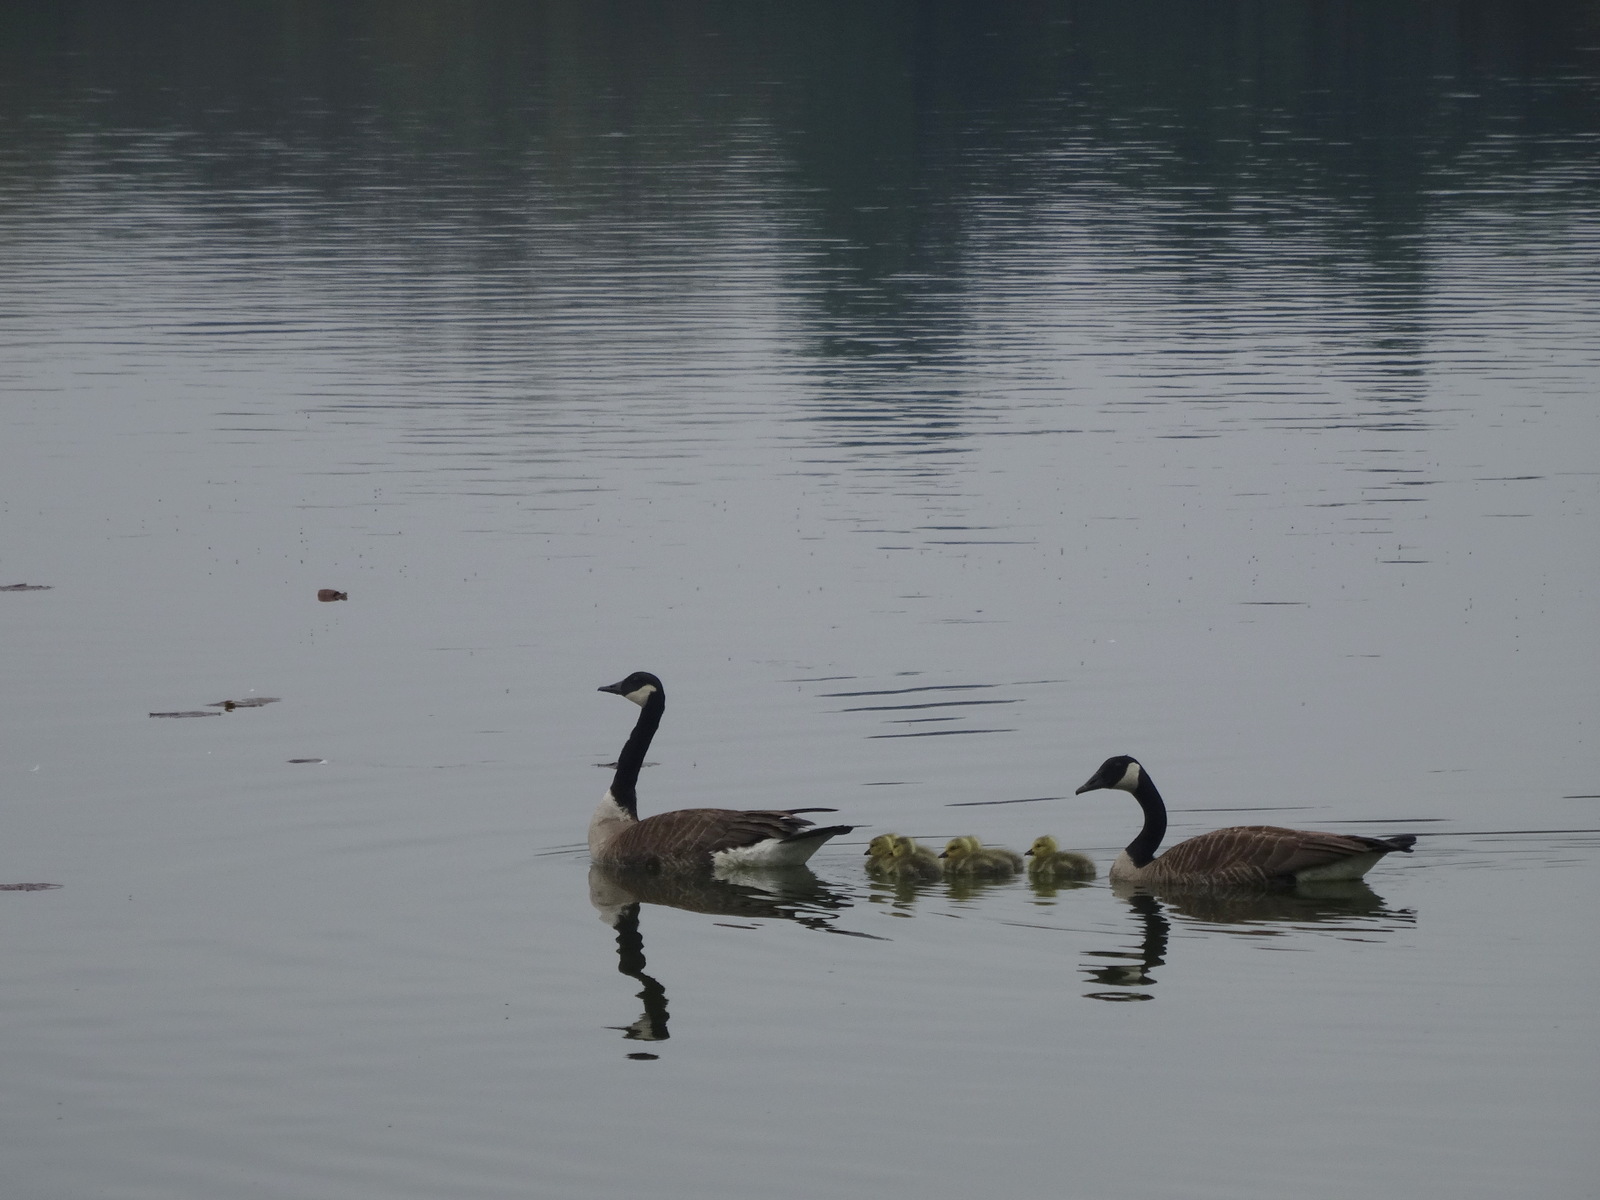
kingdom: Animalia
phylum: Chordata
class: Aves
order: Anseriformes
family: Anatidae
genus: Branta
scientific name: Branta canadensis
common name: Canada goose
